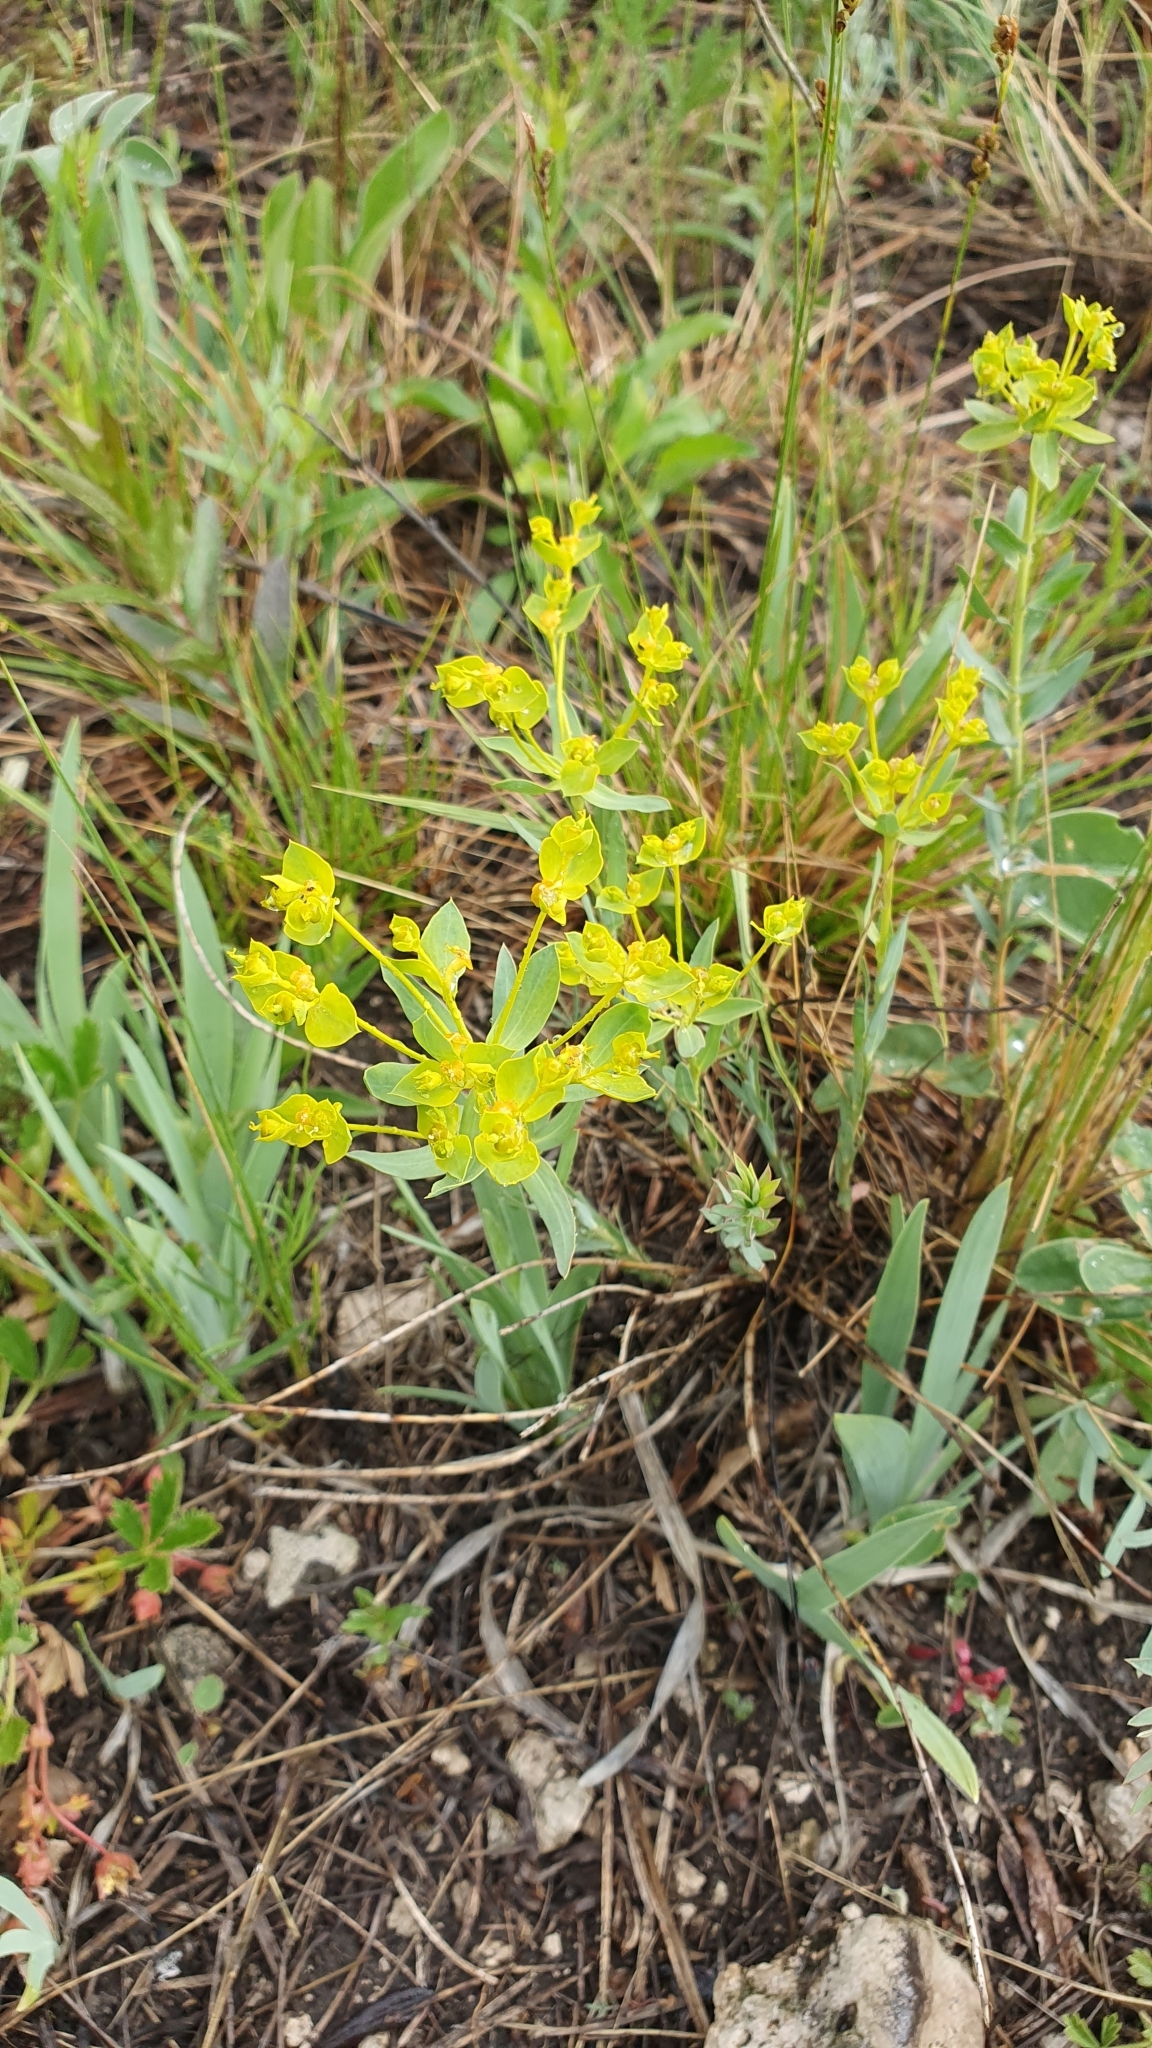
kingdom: Plantae
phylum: Tracheophyta
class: Magnoliopsida
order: Malpighiales
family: Euphorbiaceae
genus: Euphorbia
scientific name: Euphorbia seguieriana
